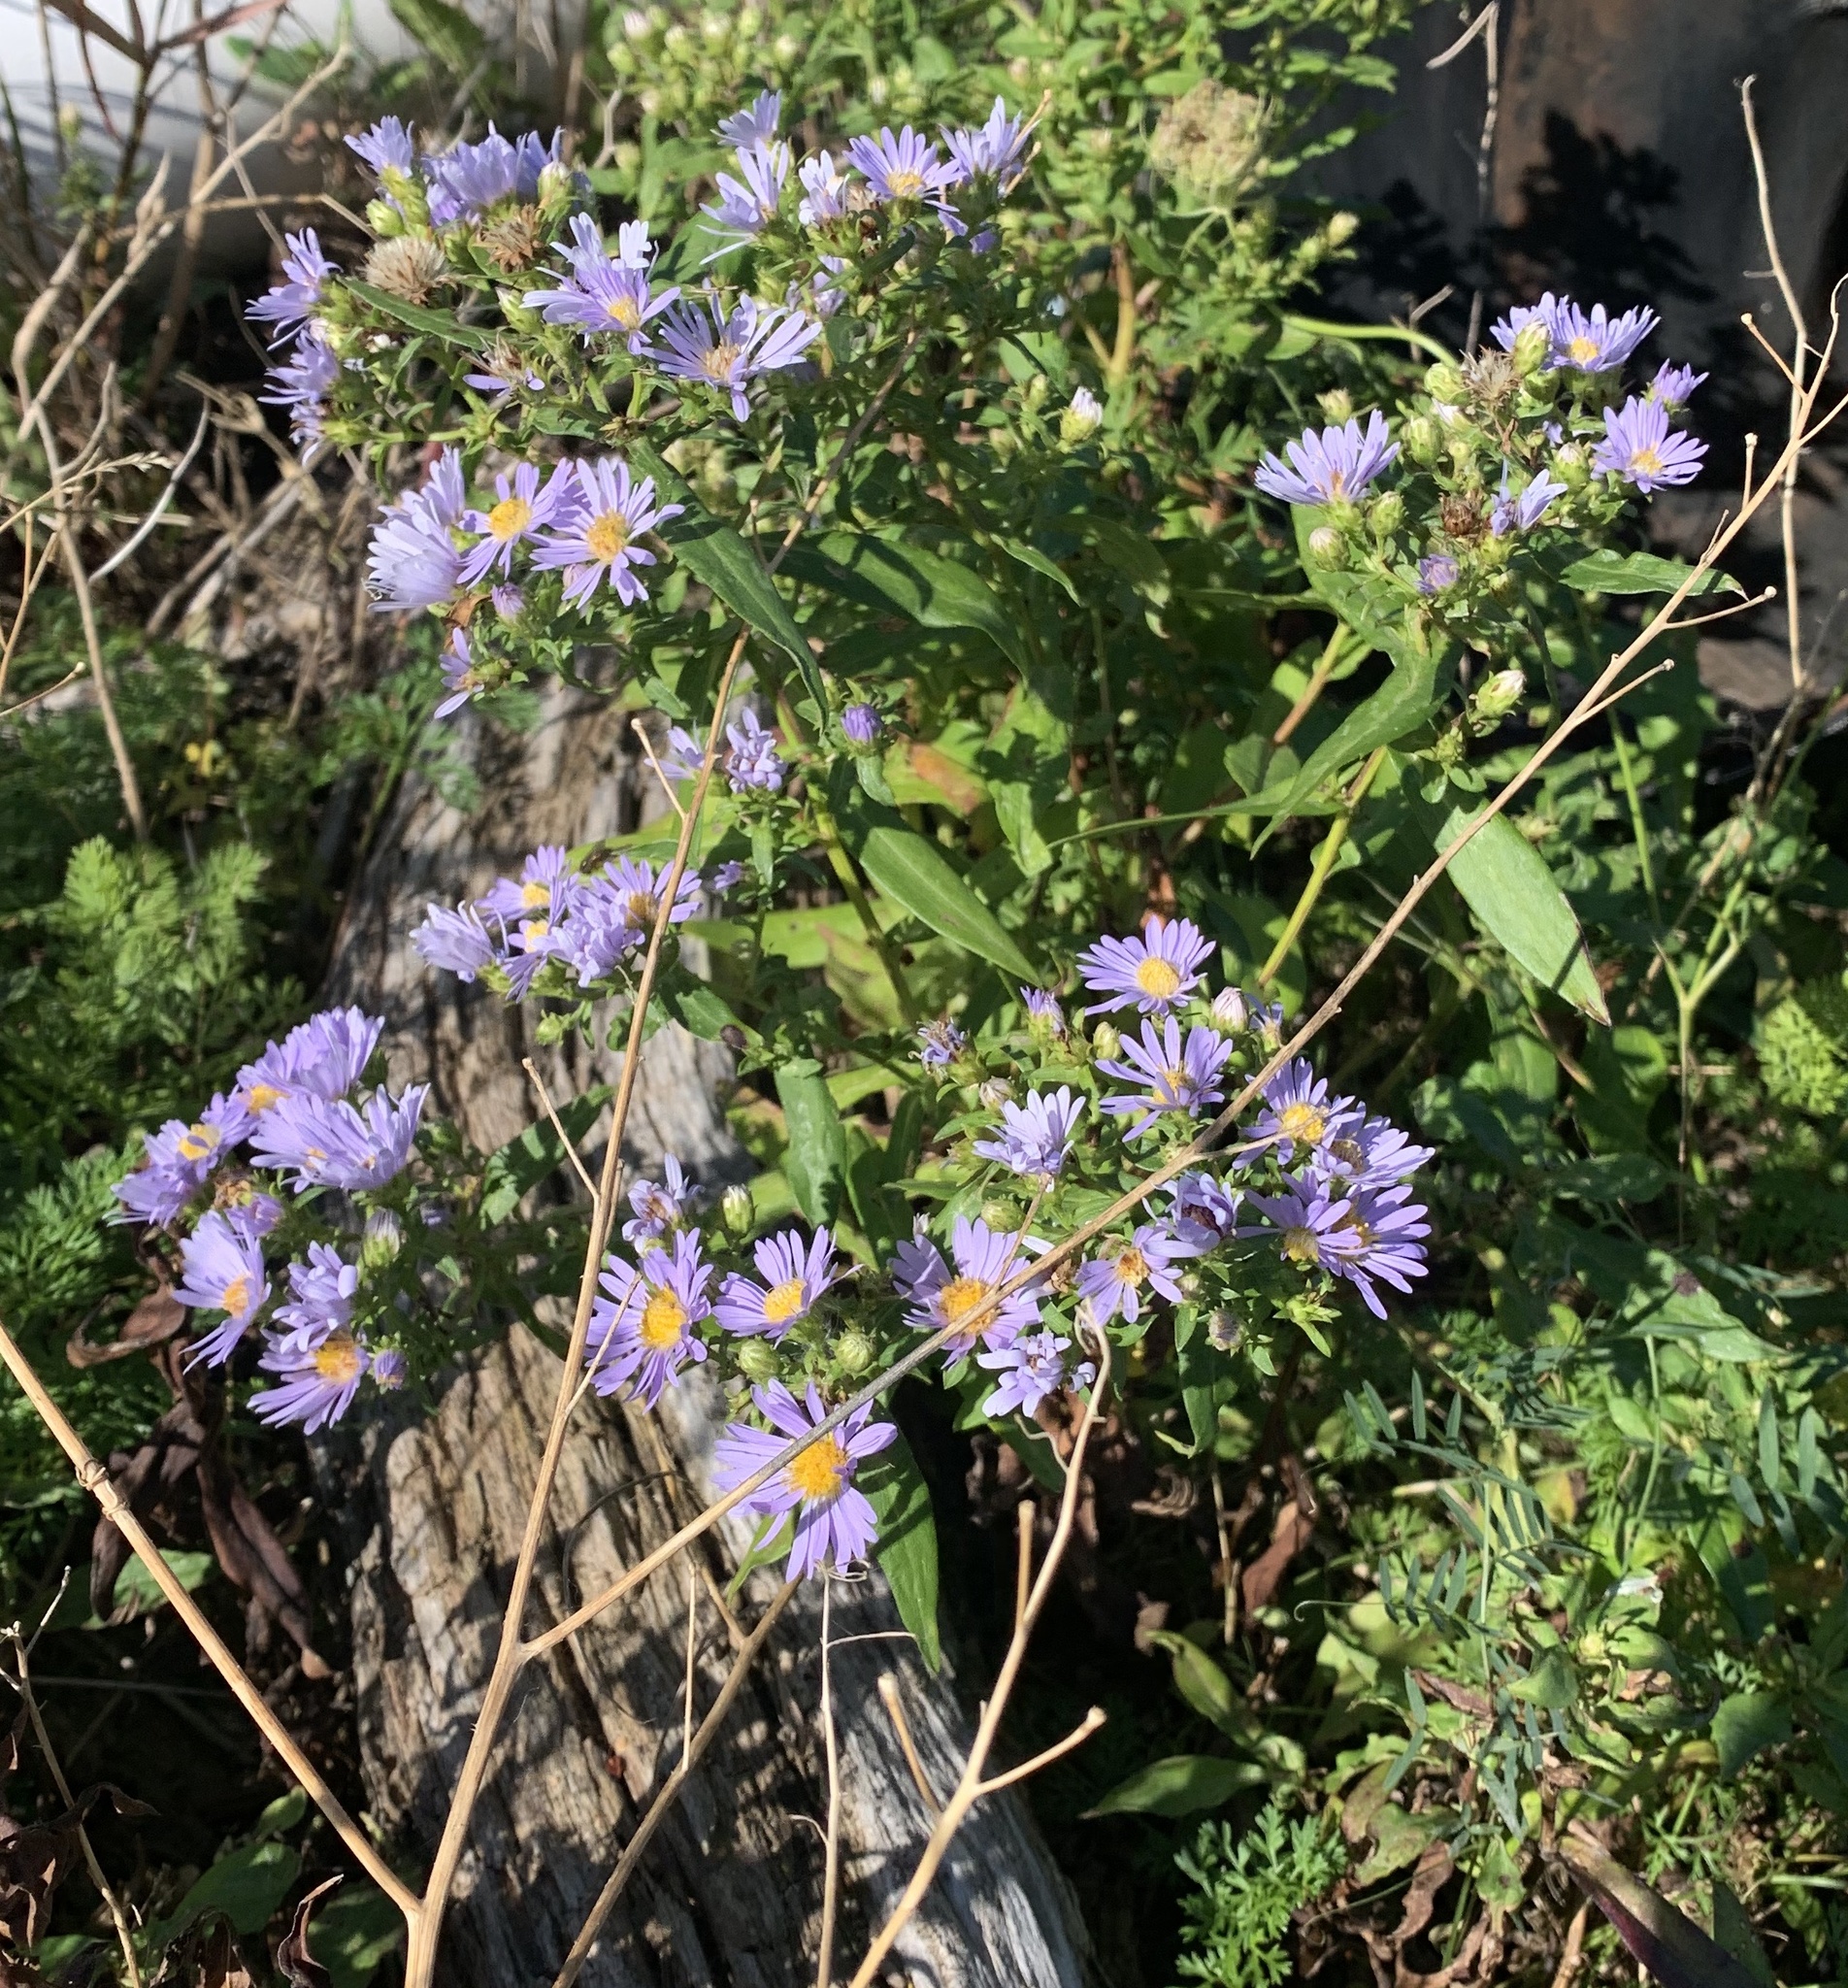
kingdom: Plantae
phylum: Tracheophyta
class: Magnoliopsida
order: Asterales
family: Asteraceae
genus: Symphyotrichum
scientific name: Symphyotrichum novi-belgii
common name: Michaelmas daisy
